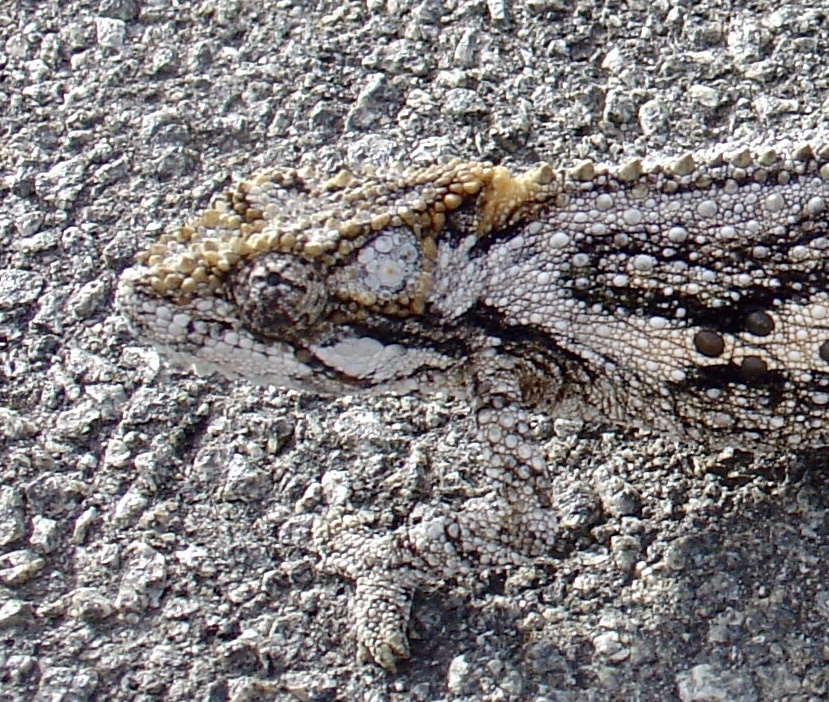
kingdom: Animalia
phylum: Chordata
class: Squamata
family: Chamaeleonidae
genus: Bradypodion
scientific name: Bradypodion ventrale
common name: Eastern cape dwarf chameleon
